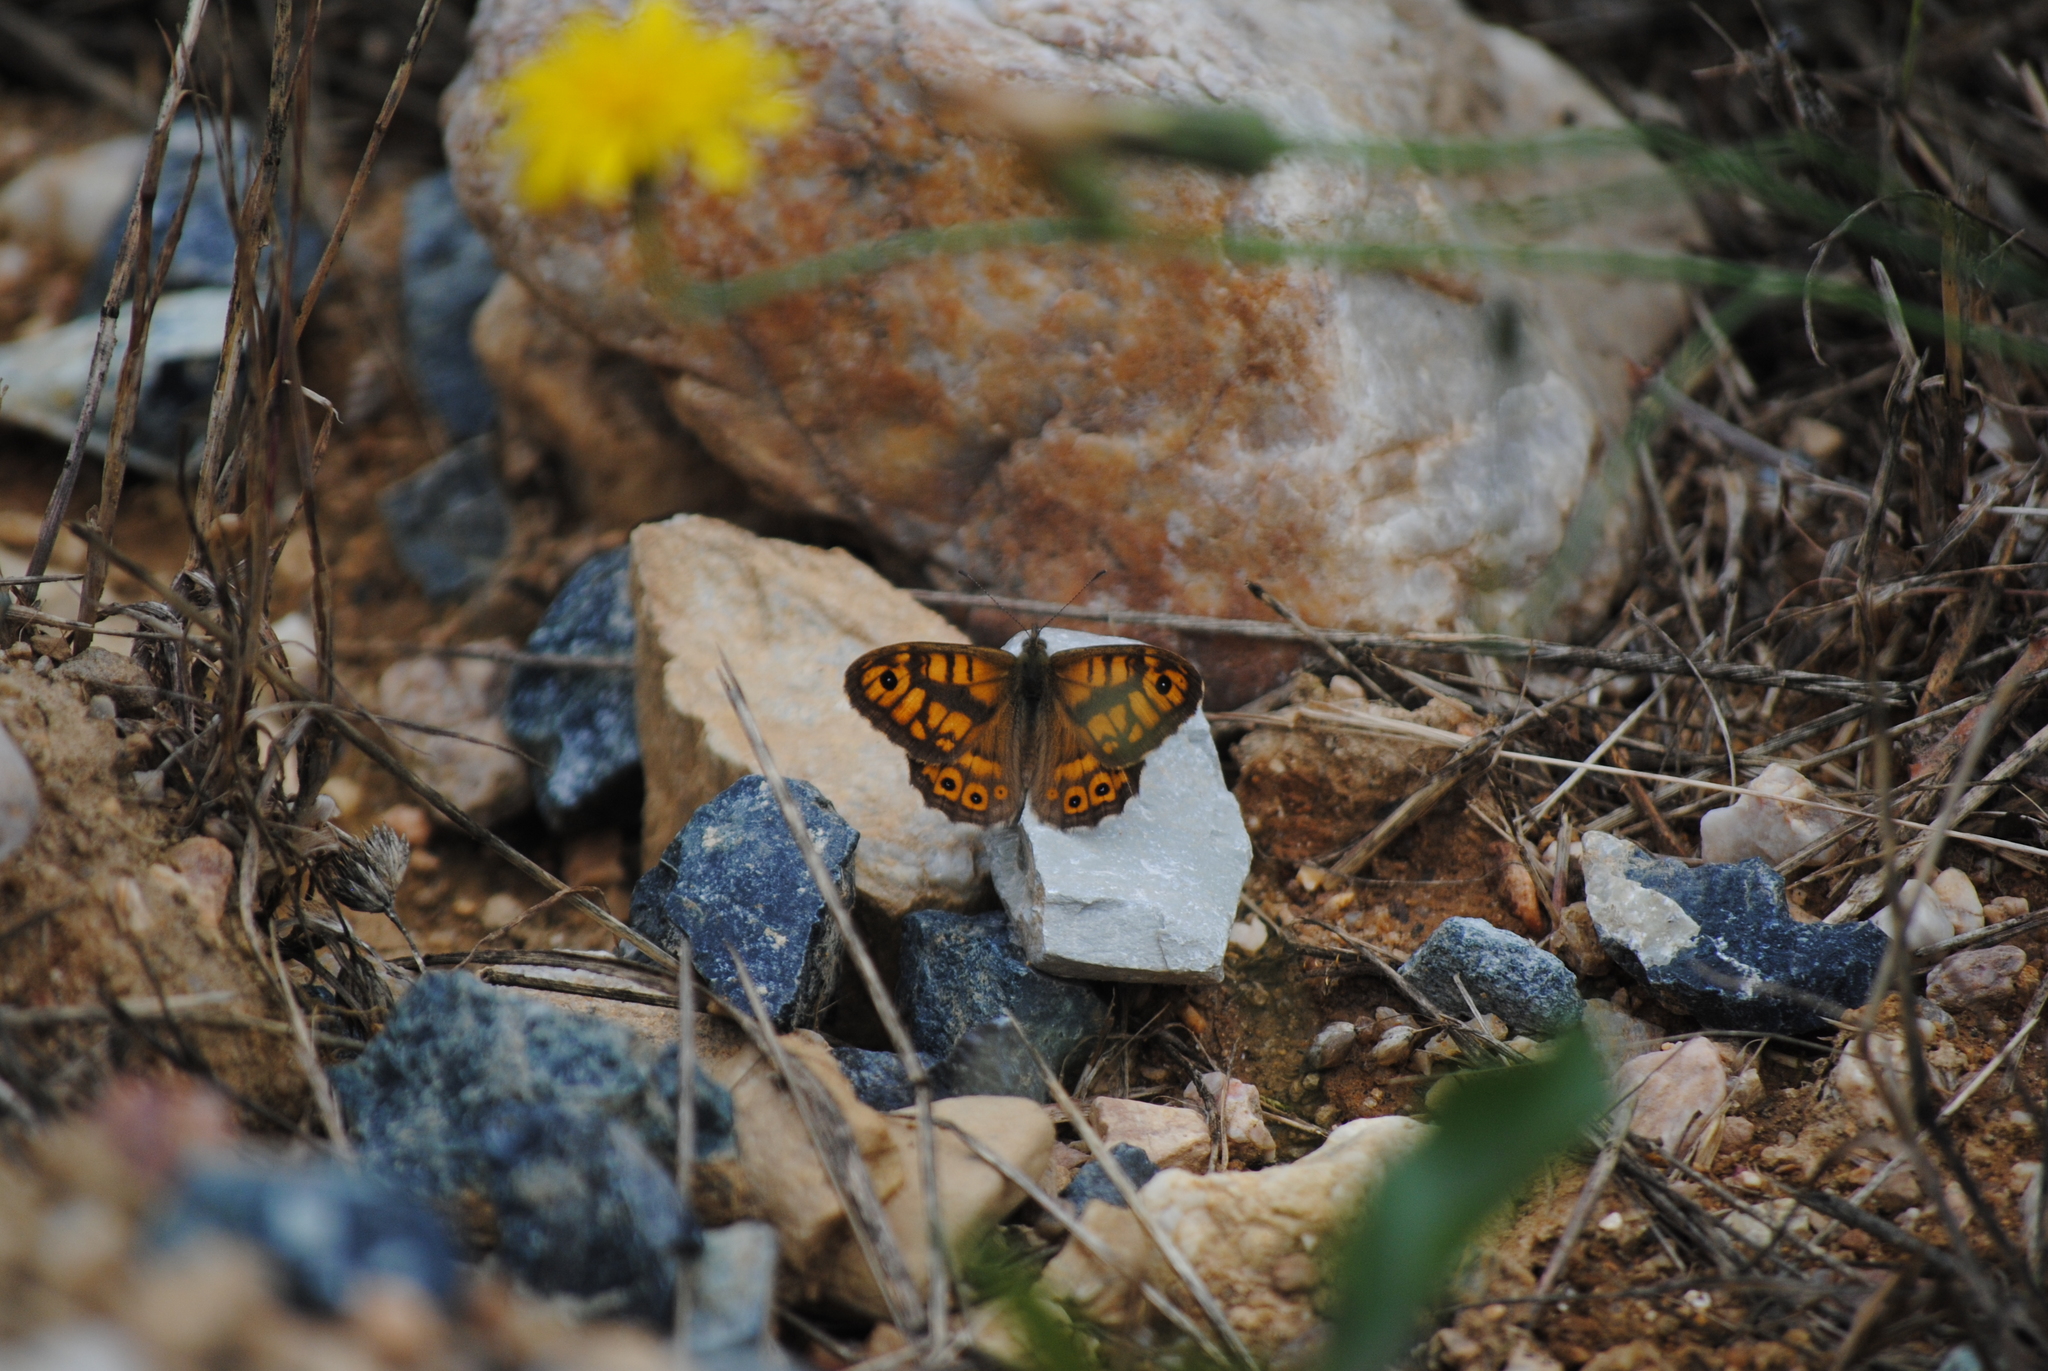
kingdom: Animalia
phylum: Arthropoda
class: Insecta
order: Lepidoptera
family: Nymphalidae
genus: Pararge
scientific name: Pararge Lasiommata megera
